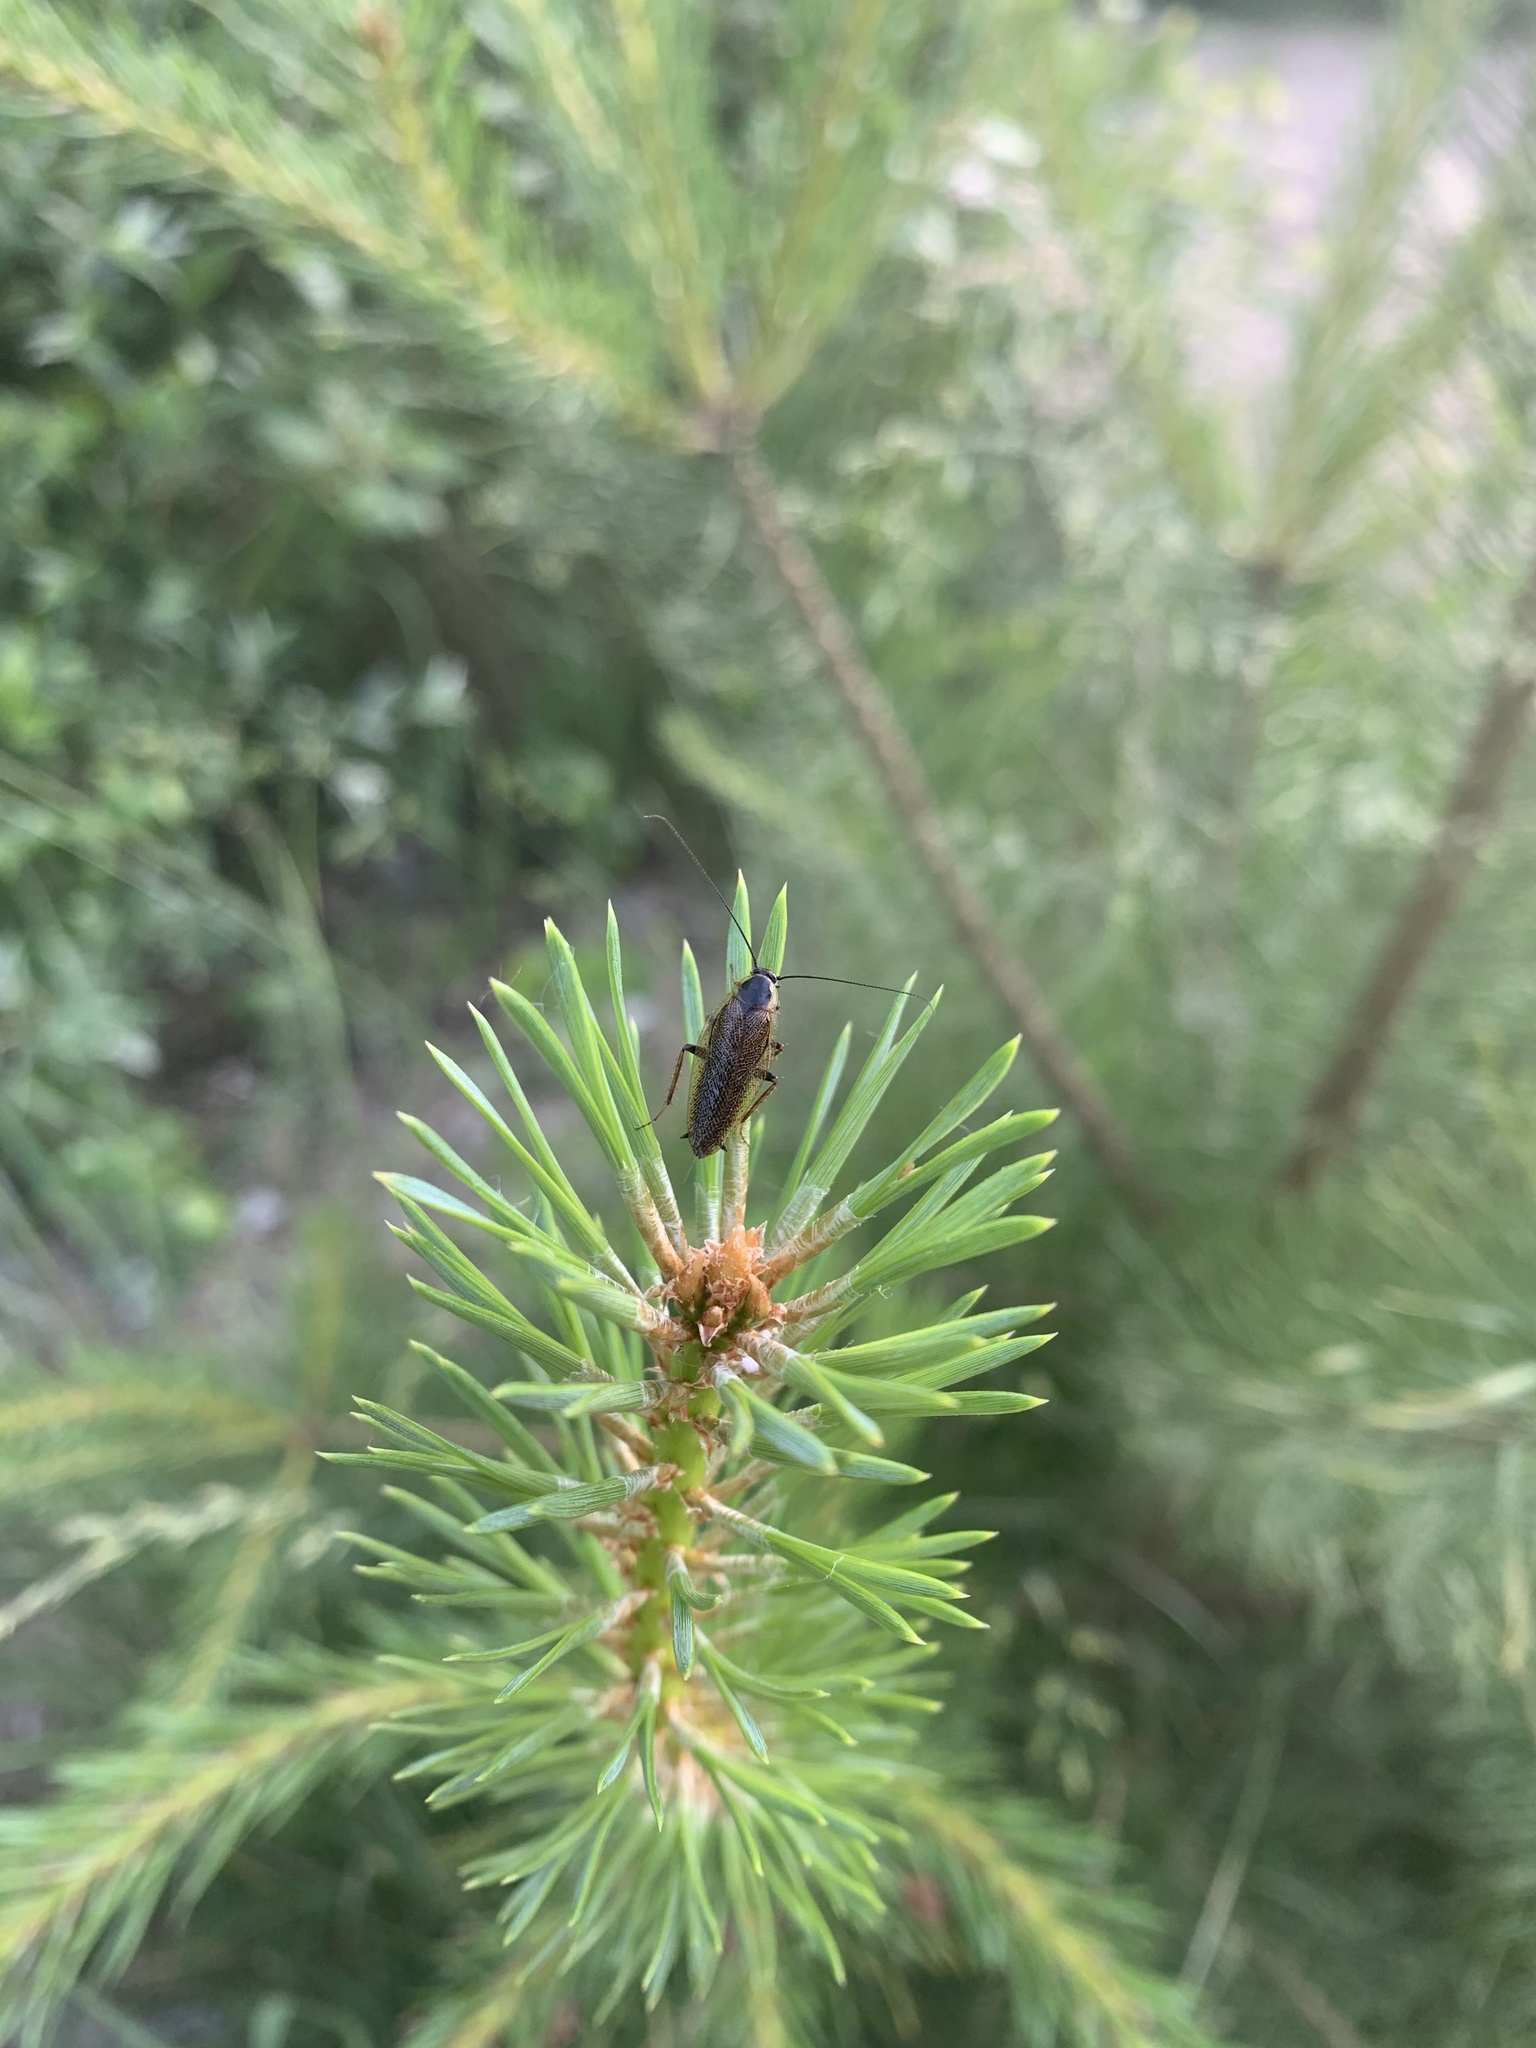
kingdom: Animalia
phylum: Arthropoda
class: Insecta
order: Blattodea
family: Ectobiidae
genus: Ectobius
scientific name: Ectobius lapponicus
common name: Dusky cockroach
